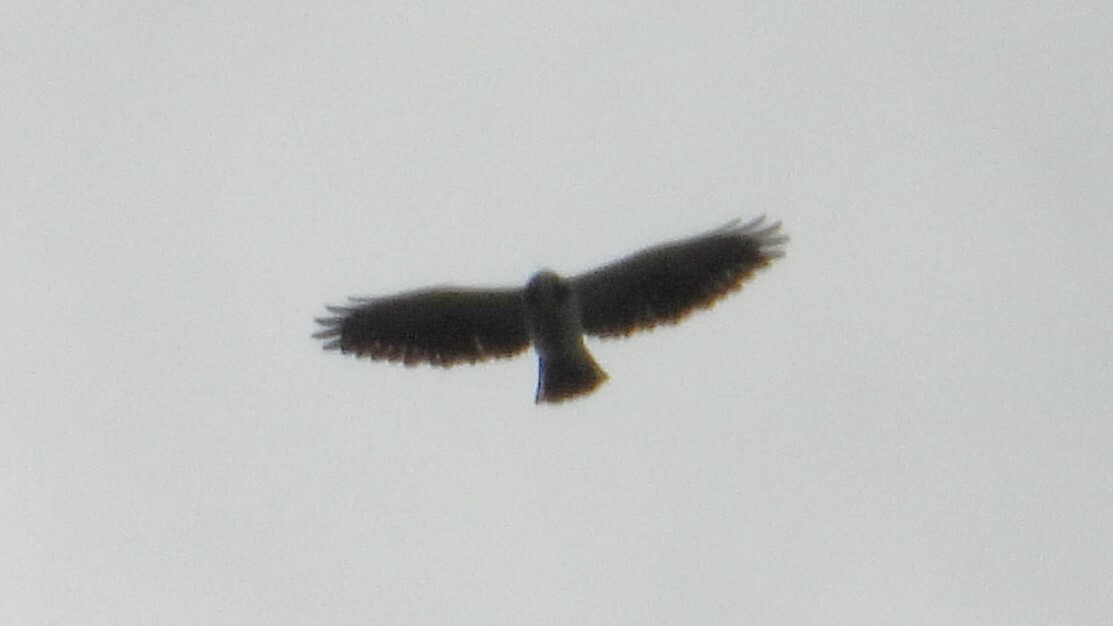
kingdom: Animalia
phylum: Chordata
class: Aves
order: Accipitriformes
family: Accipitridae
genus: Buteo
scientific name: Buteo brachyurus
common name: Short-tailed hawk
